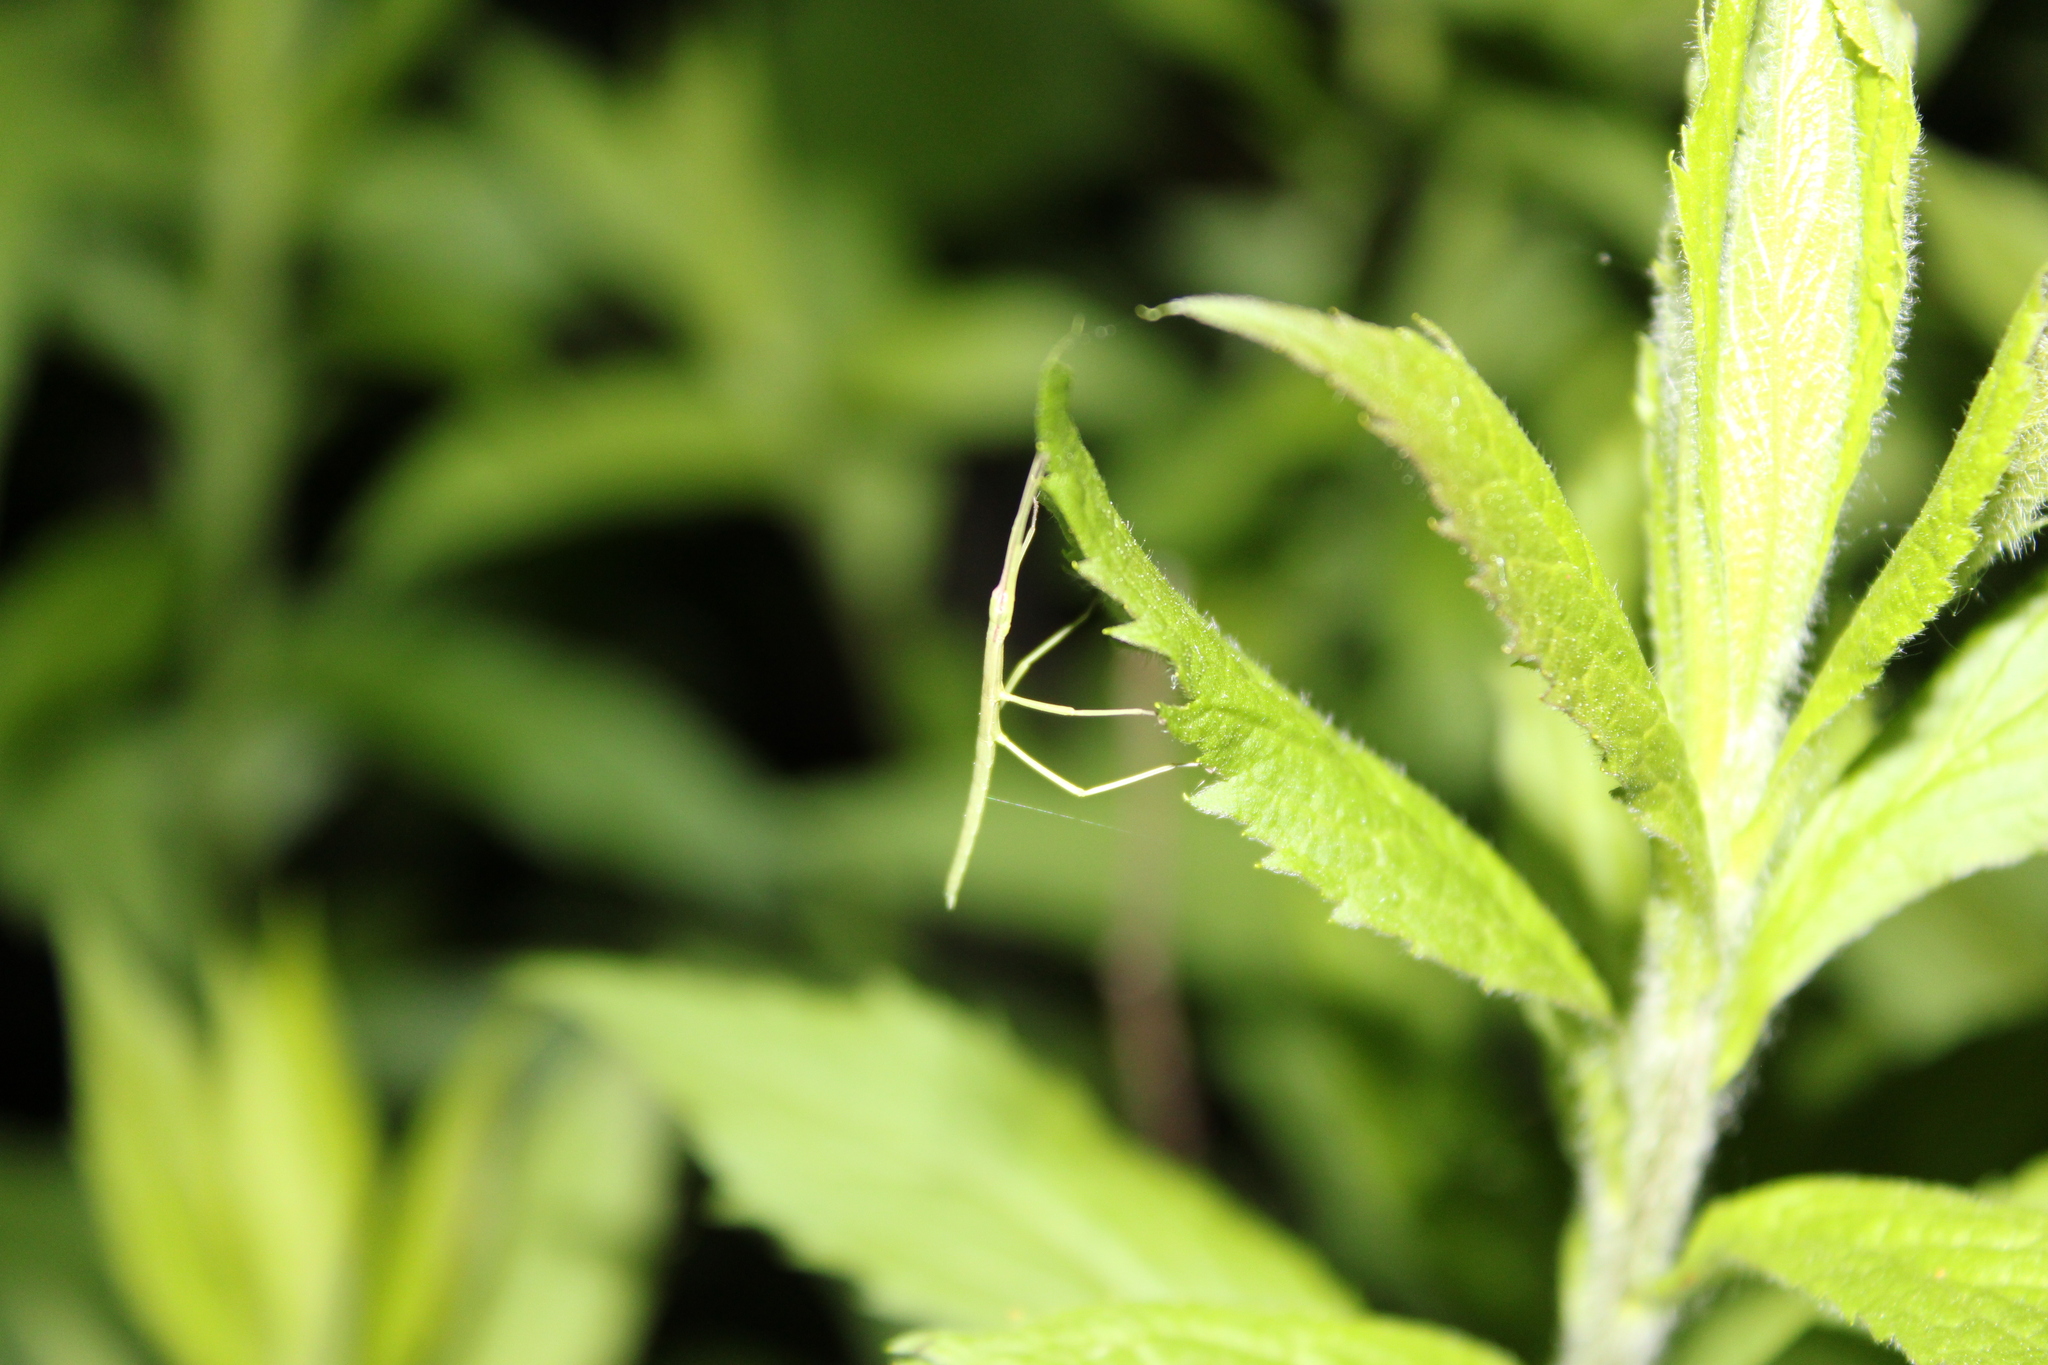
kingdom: Animalia
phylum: Arthropoda
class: Insecta
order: Phasmida
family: Diapheromeridae
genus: Manomera
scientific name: Manomera blatchleyi
